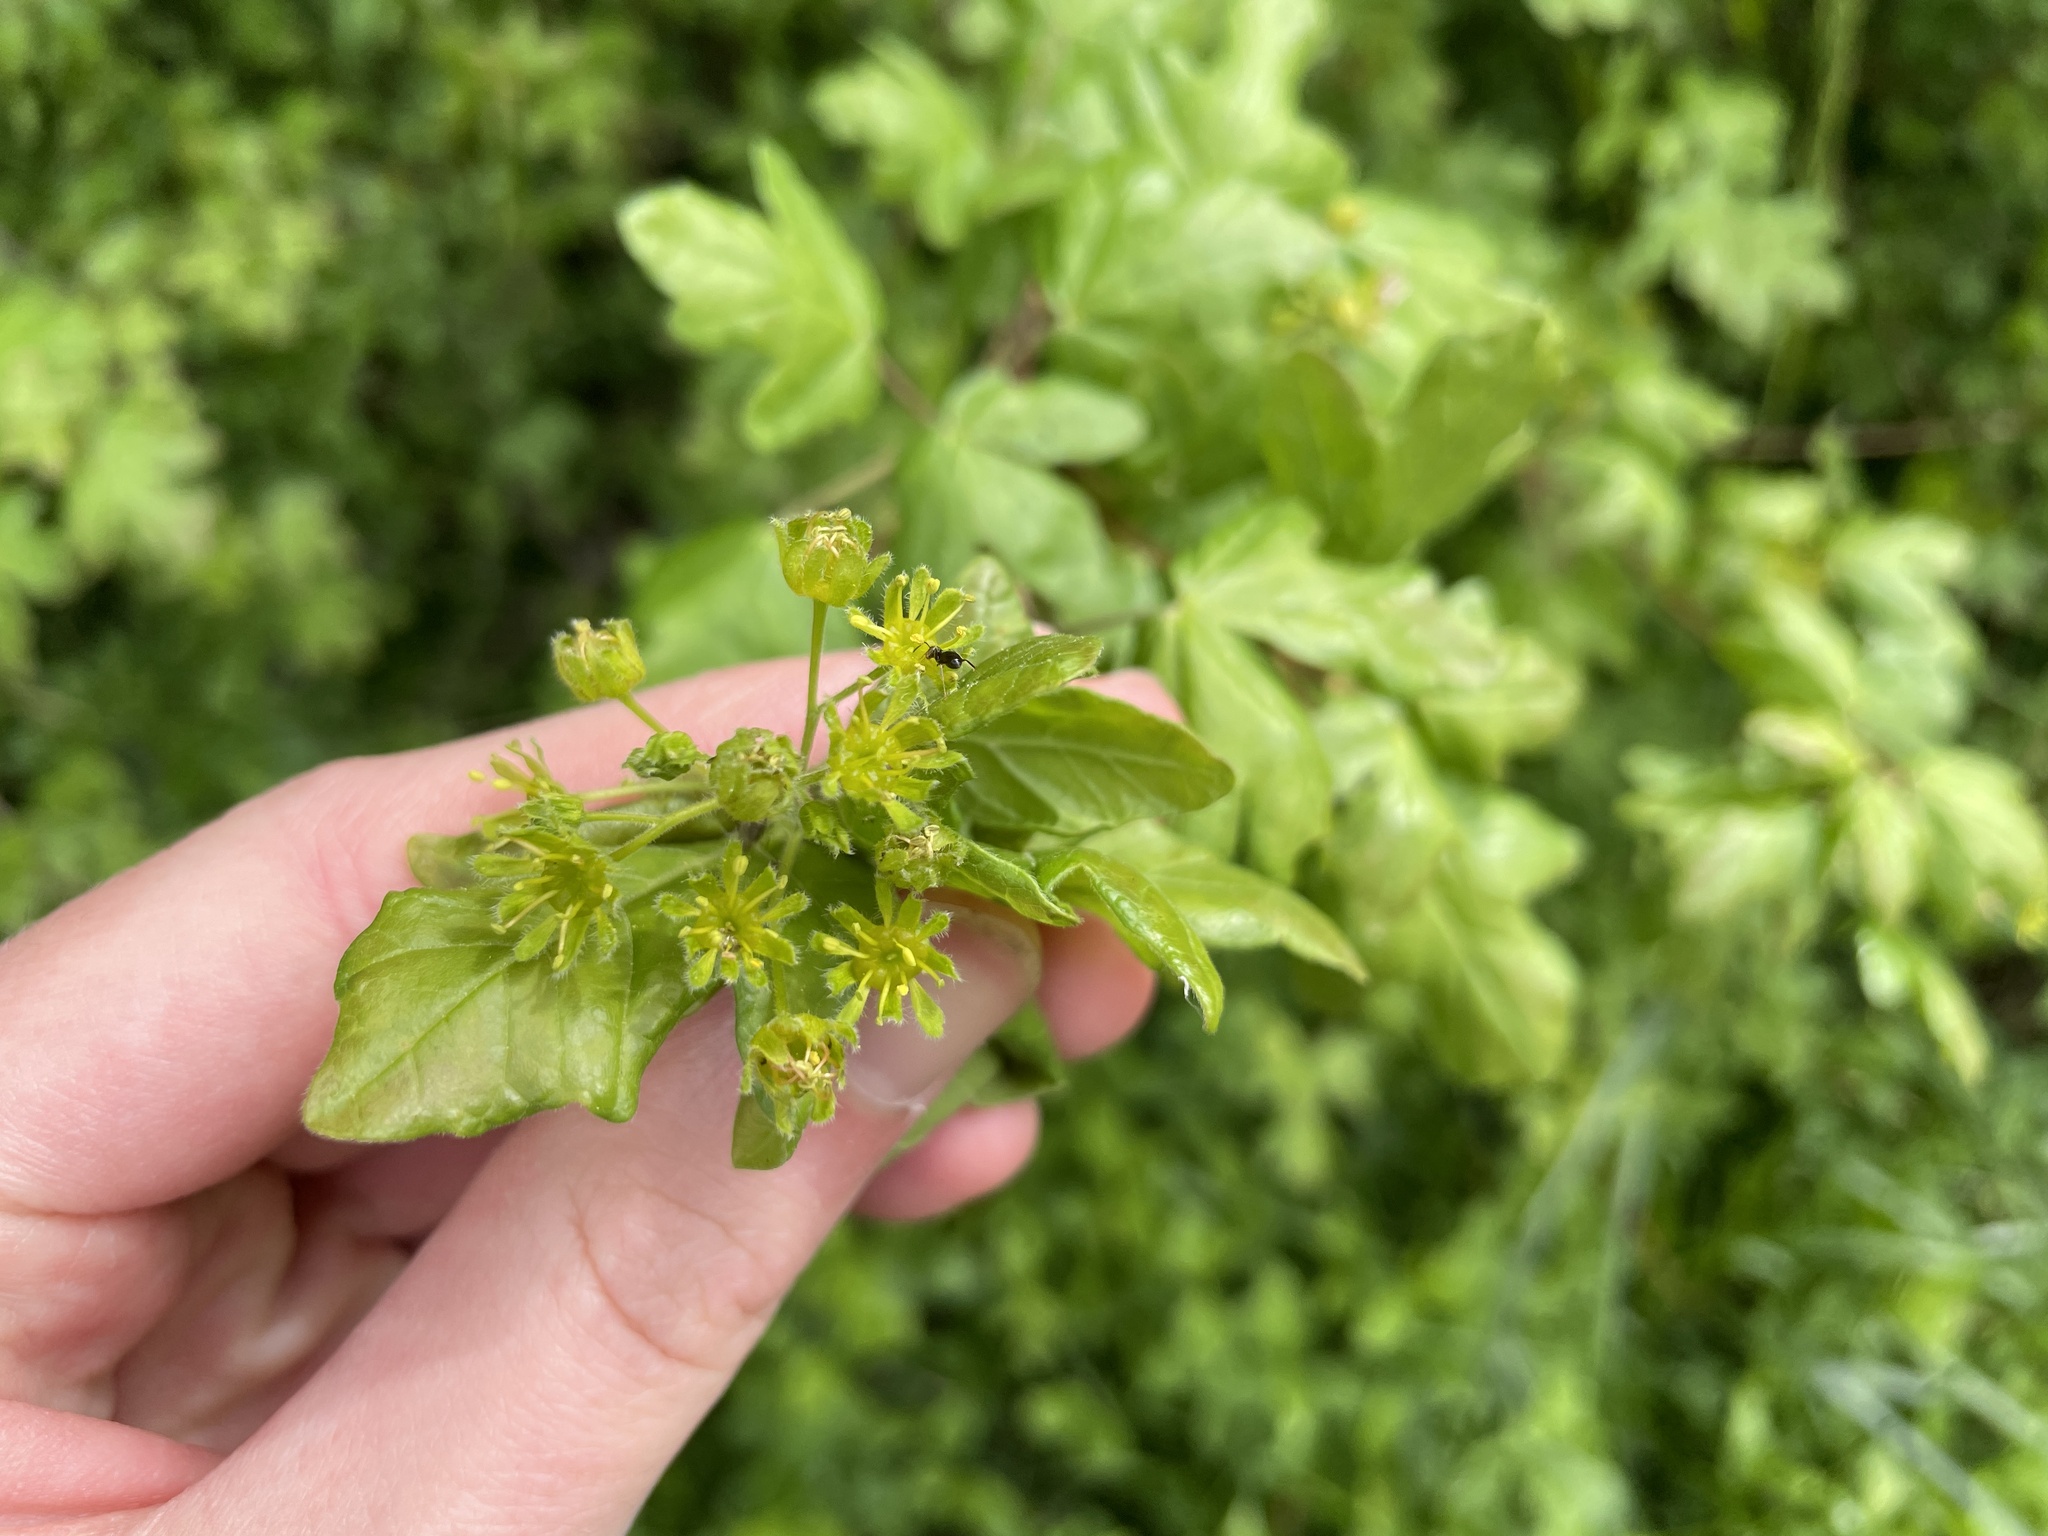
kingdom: Plantae
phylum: Tracheophyta
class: Magnoliopsida
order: Sapindales
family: Sapindaceae
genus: Acer
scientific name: Acer campestre
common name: Field maple
